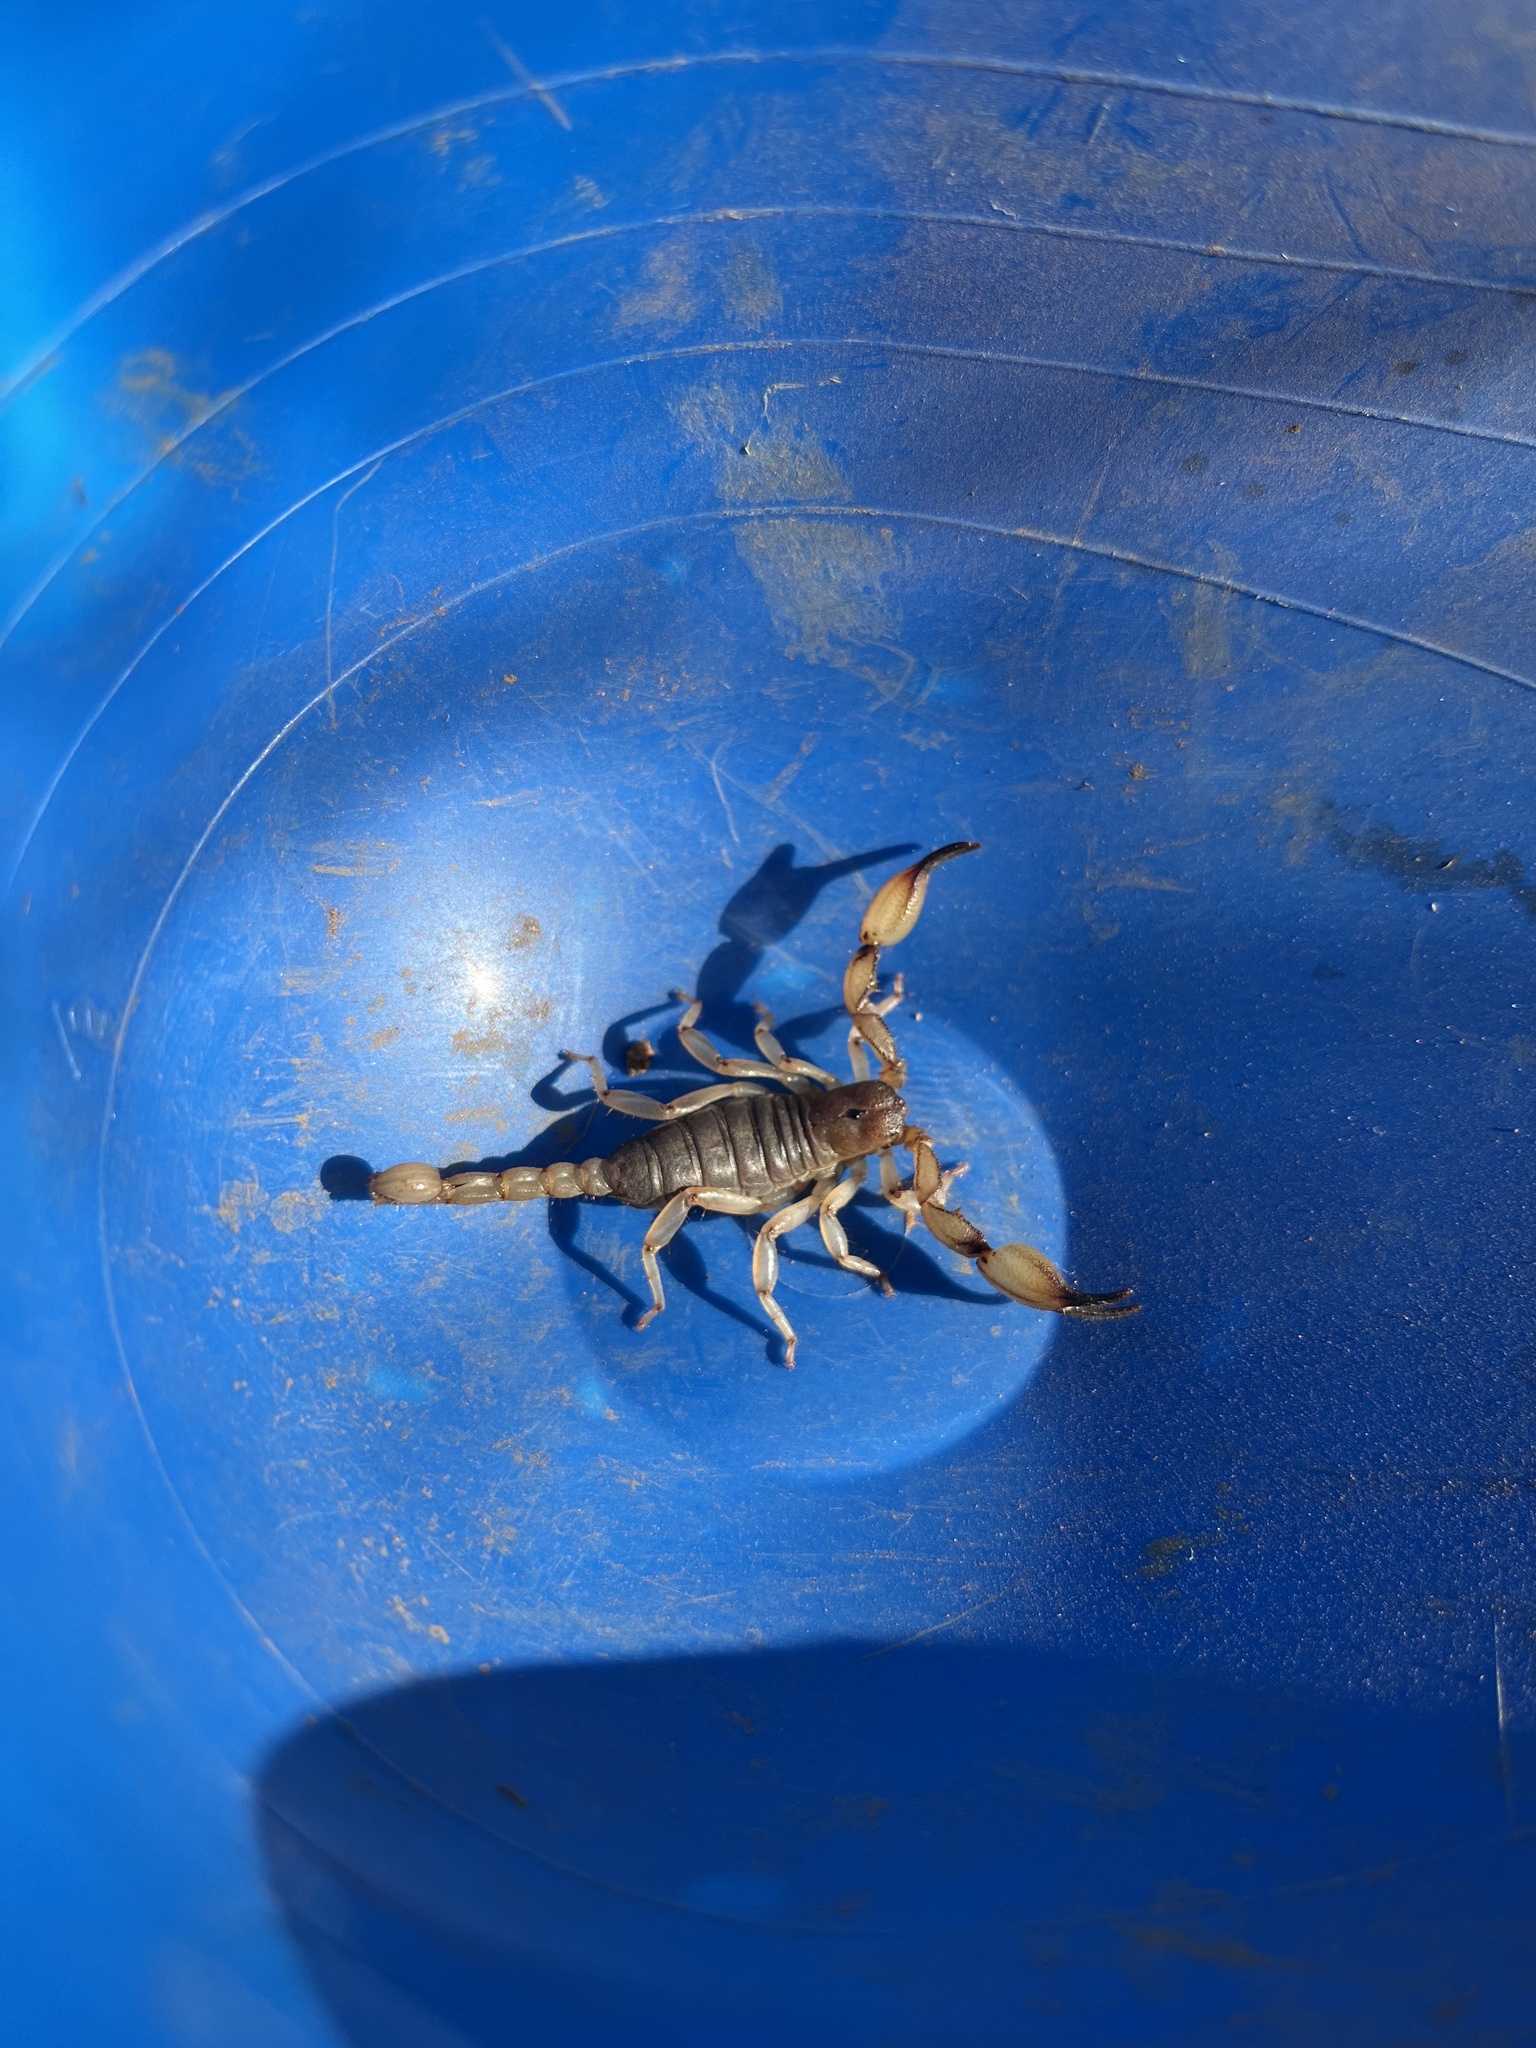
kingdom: Animalia
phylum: Arthropoda
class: Arachnida
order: Scorpiones
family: Chactidae
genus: Anuroctonus
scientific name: Anuroctonus pococki
